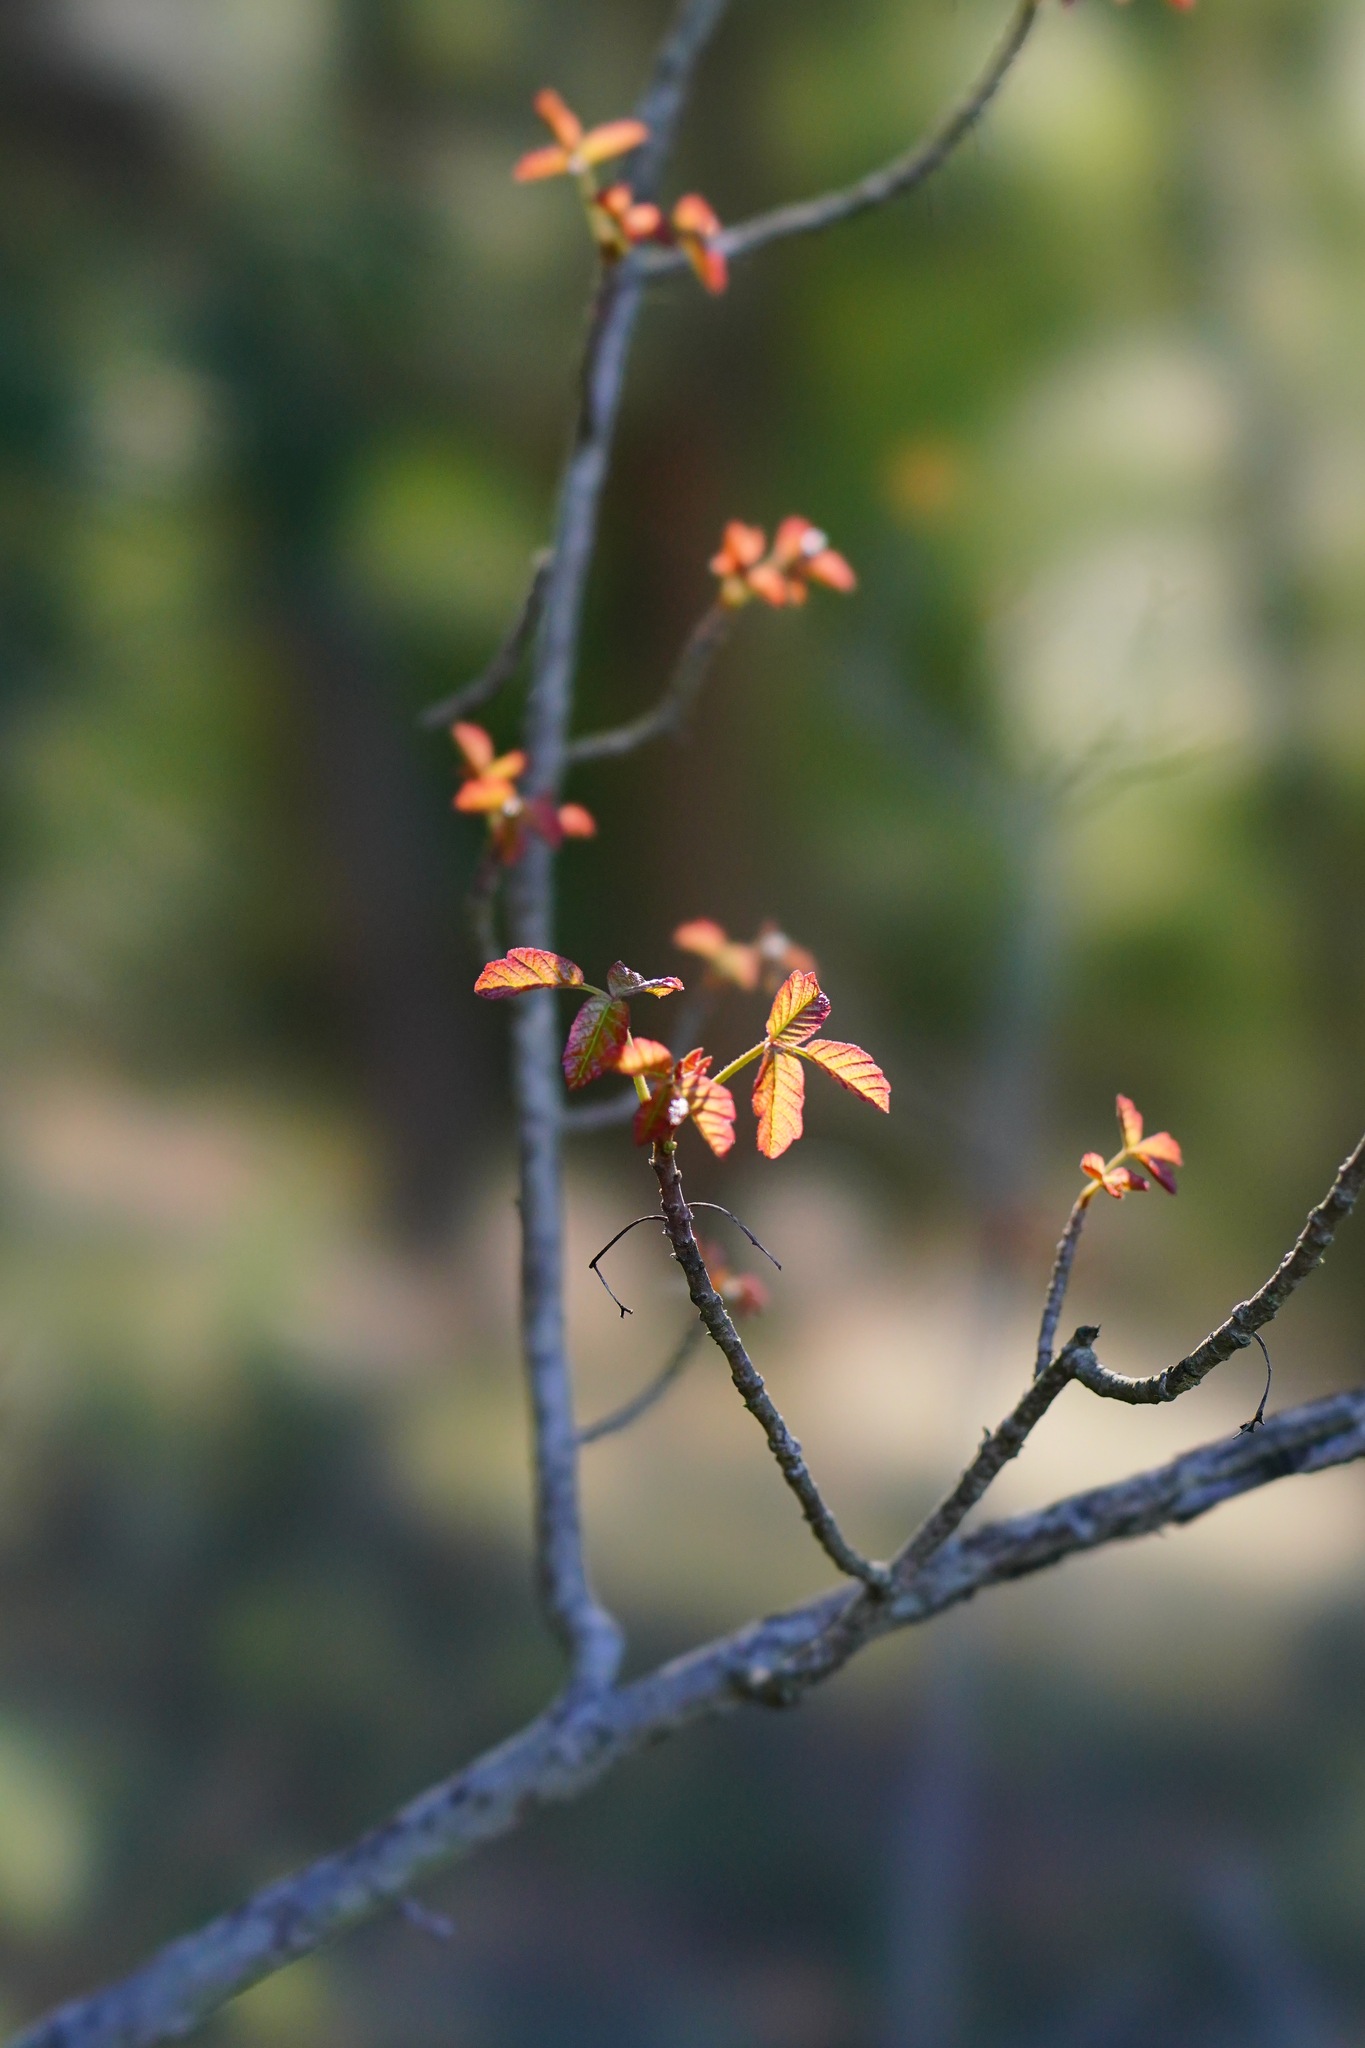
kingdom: Plantae
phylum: Tracheophyta
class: Magnoliopsida
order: Sapindales
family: Anacardiaceae
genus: Toxicodendron
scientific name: Toxicodendron diversilobum
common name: Pacific poison-oak
